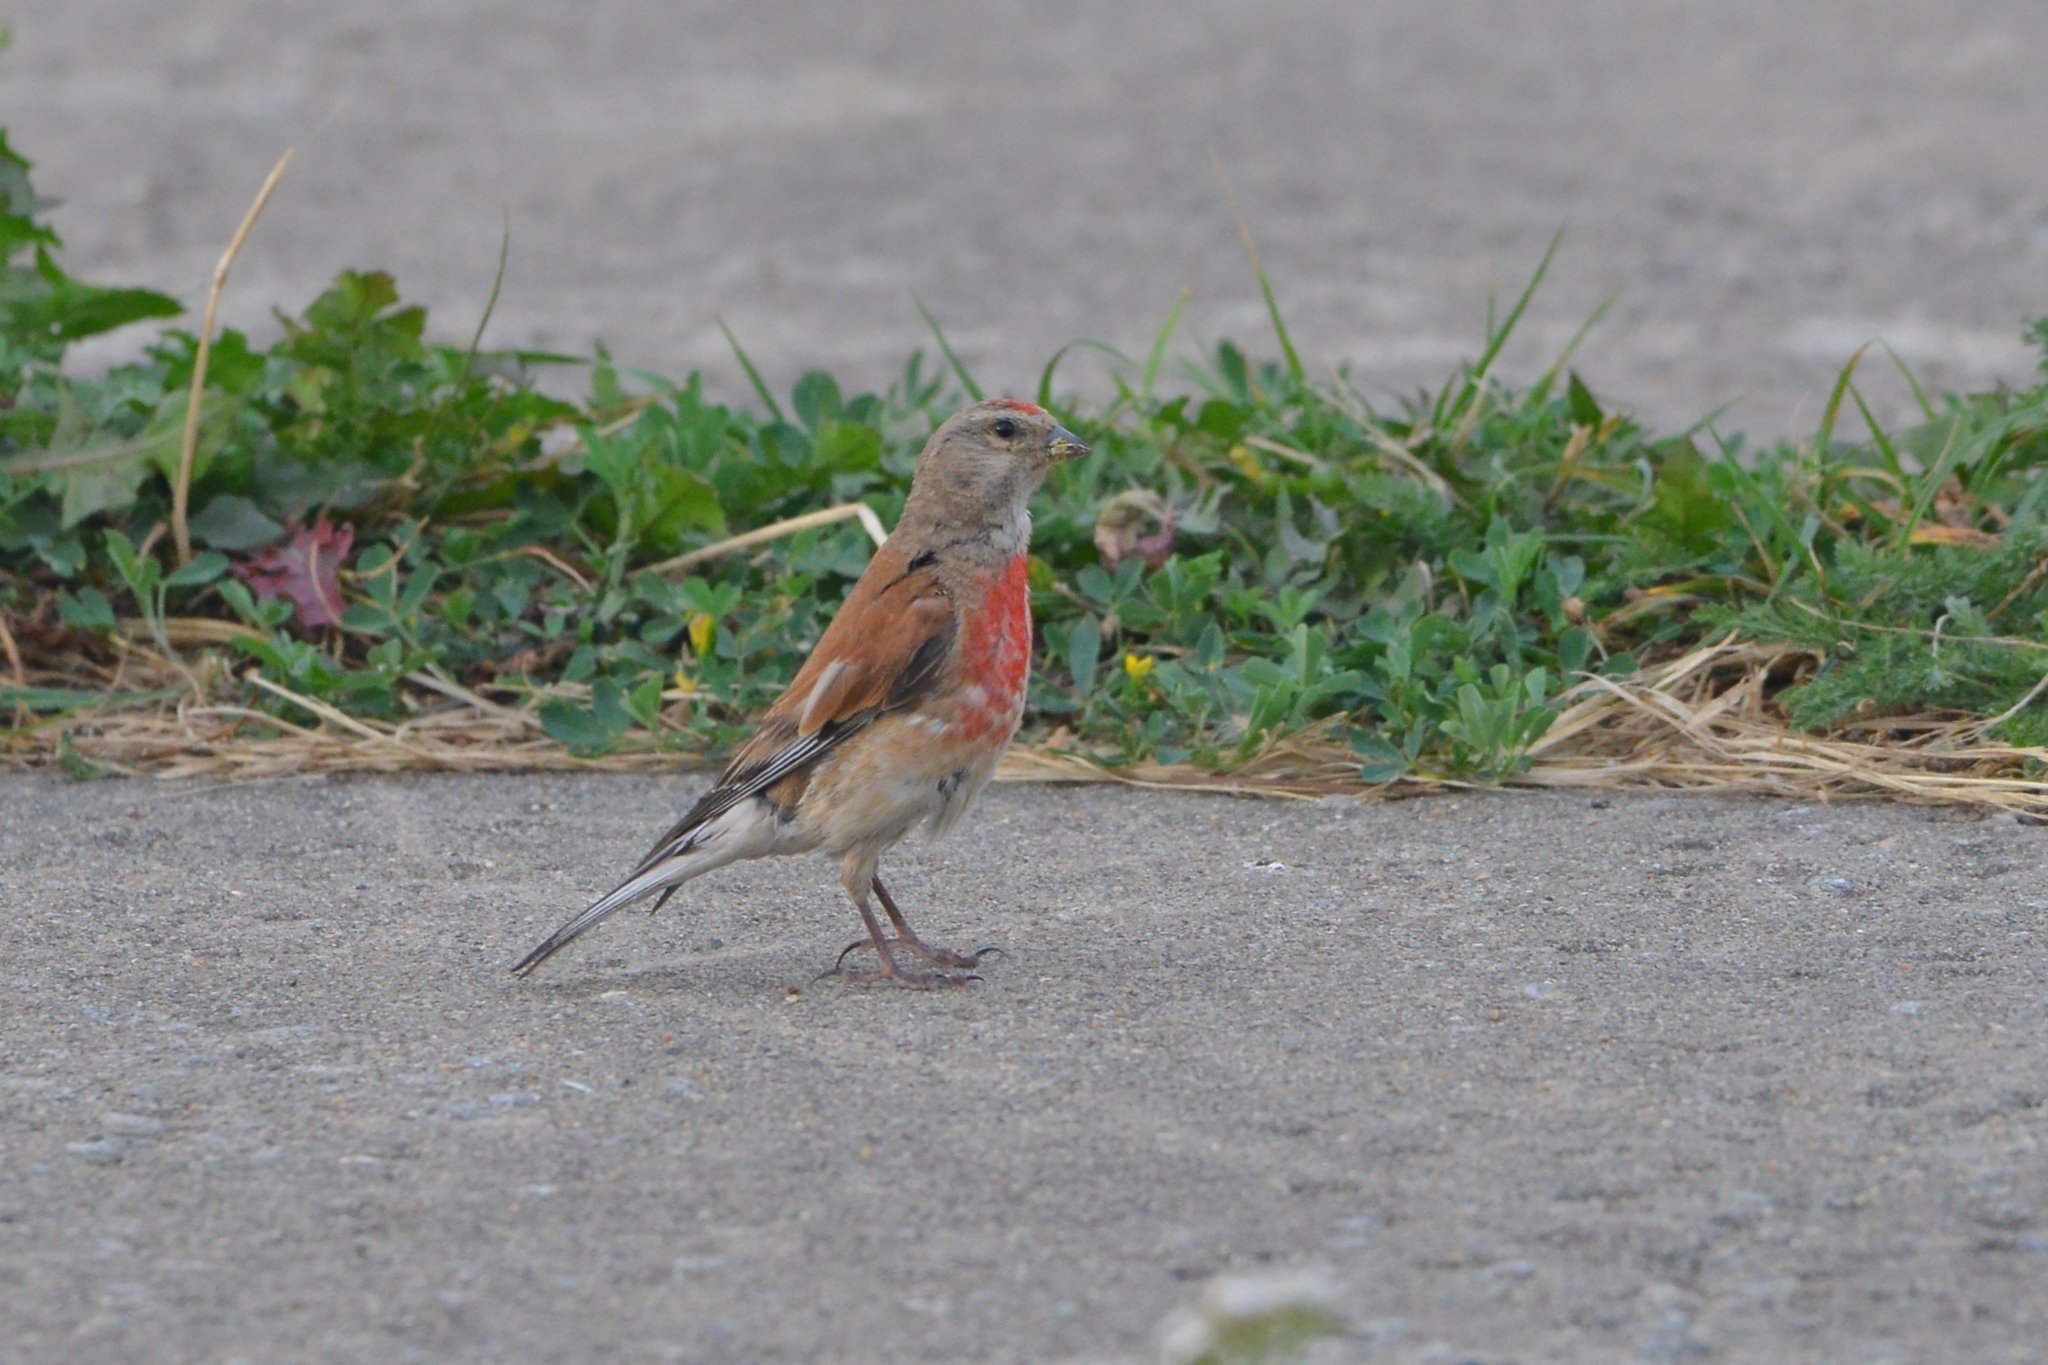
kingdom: Animalia
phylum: Chordata
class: Aves
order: Passeriformes
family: Fringillidae
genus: Linaria
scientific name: Linaria cannabina
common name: Common linnet
